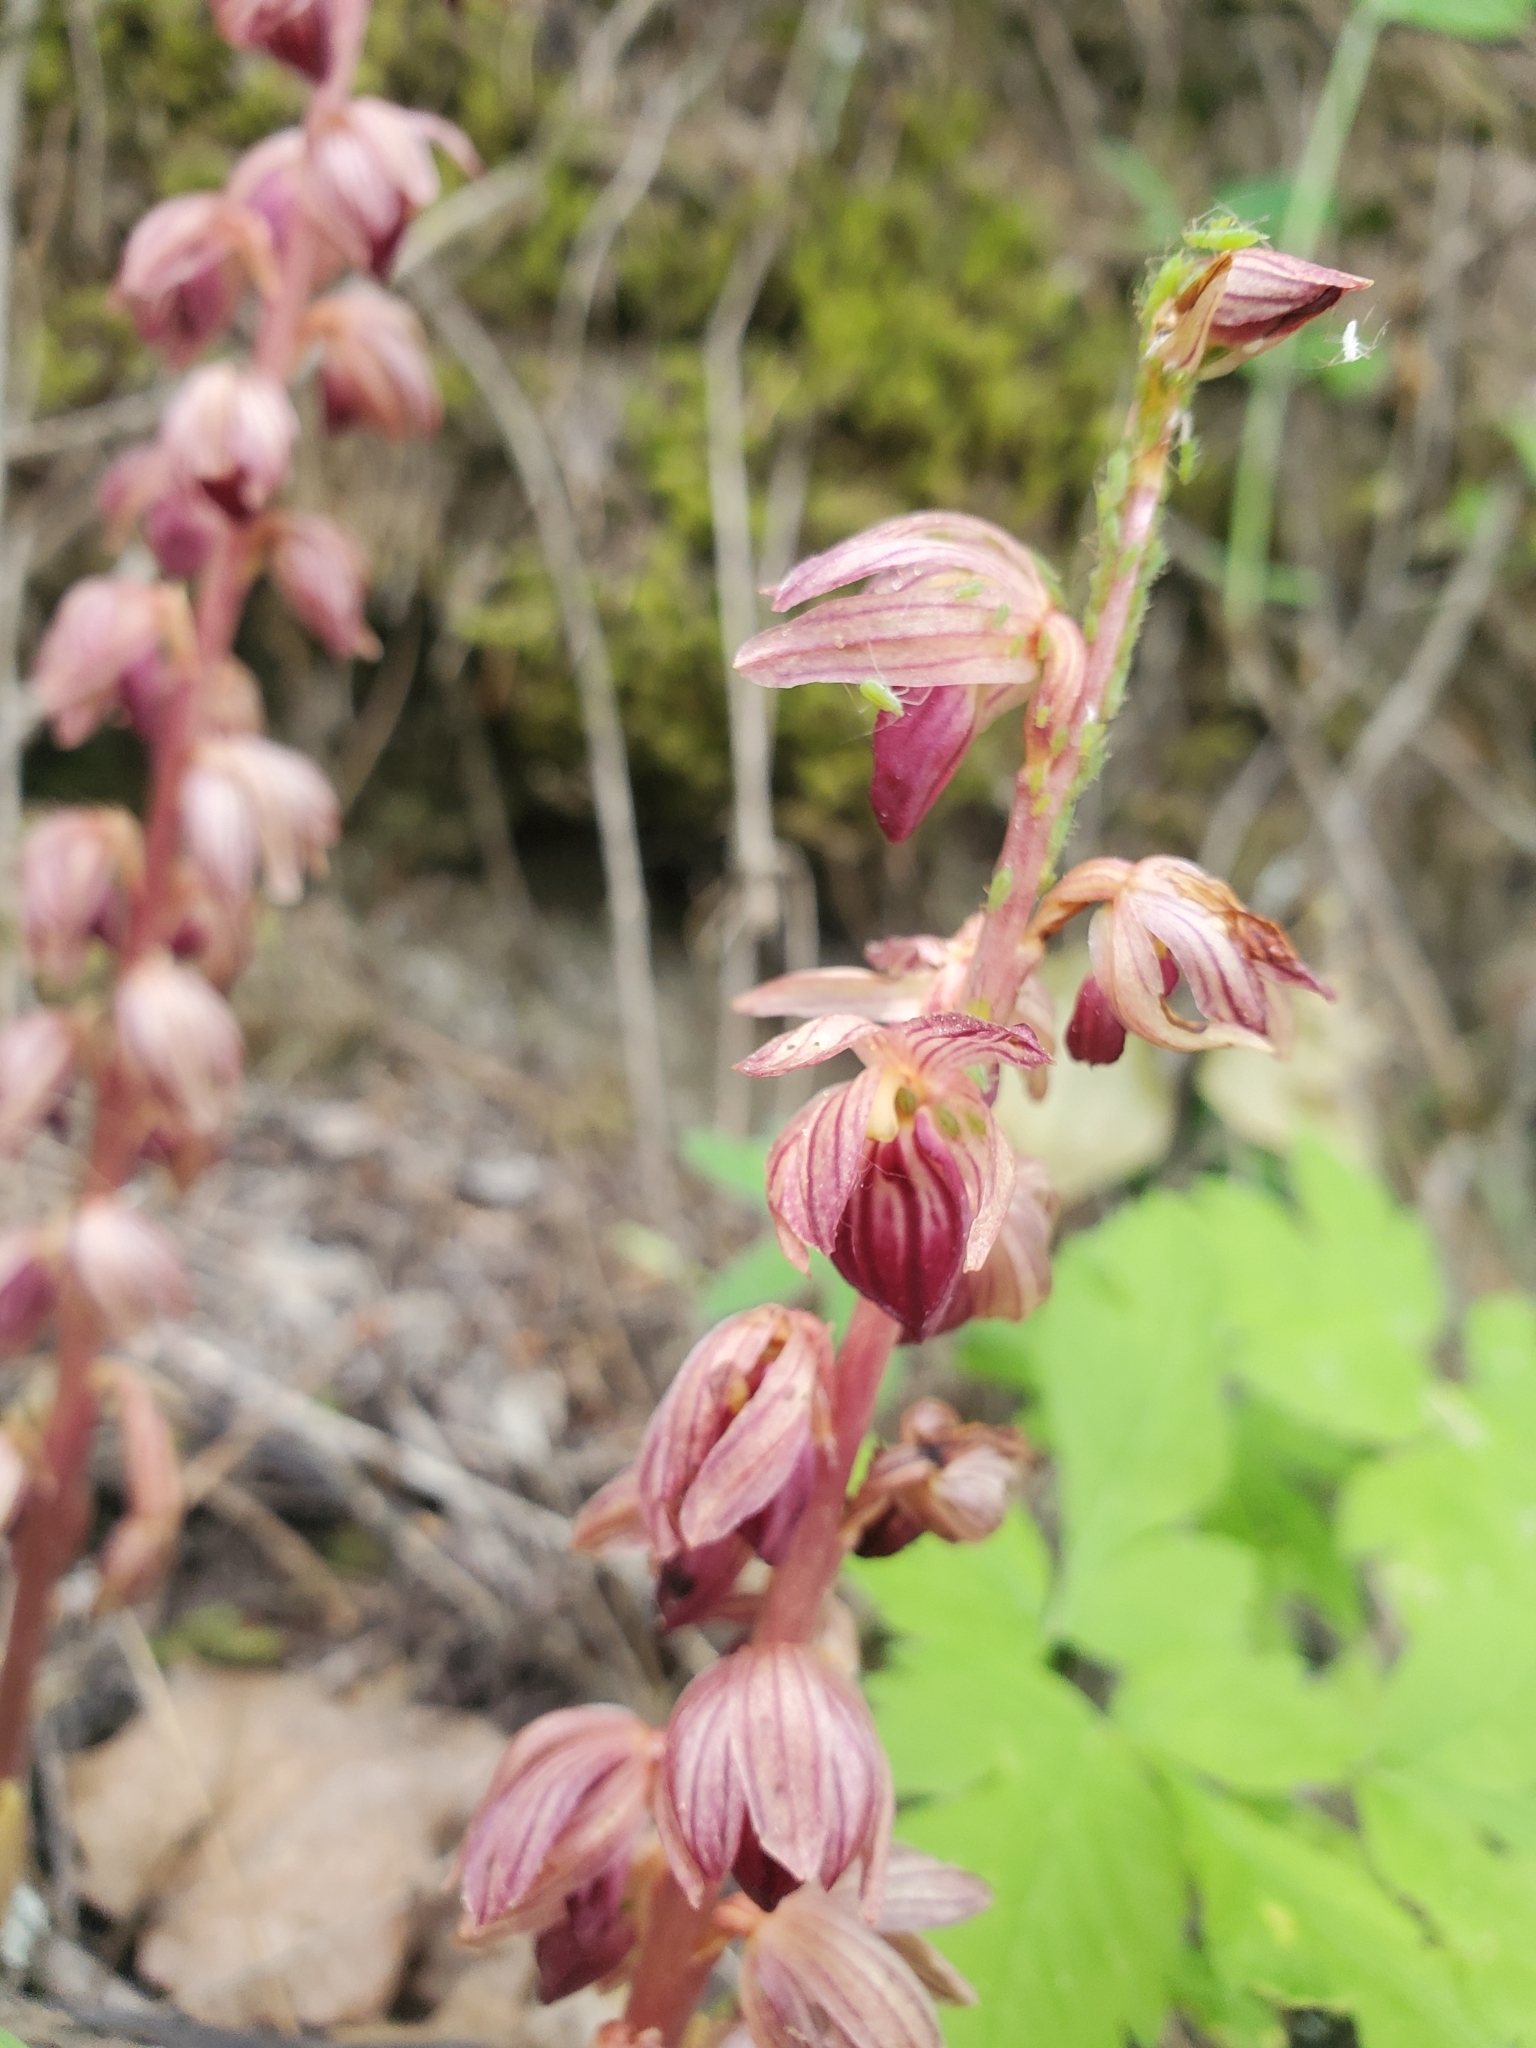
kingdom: Plantae
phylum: Tracheophyta
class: Liliopsida
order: Asparagales
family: Orchidaceae
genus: Corallorhiza
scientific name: Corallorhiza striata
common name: Hooded coralroot
